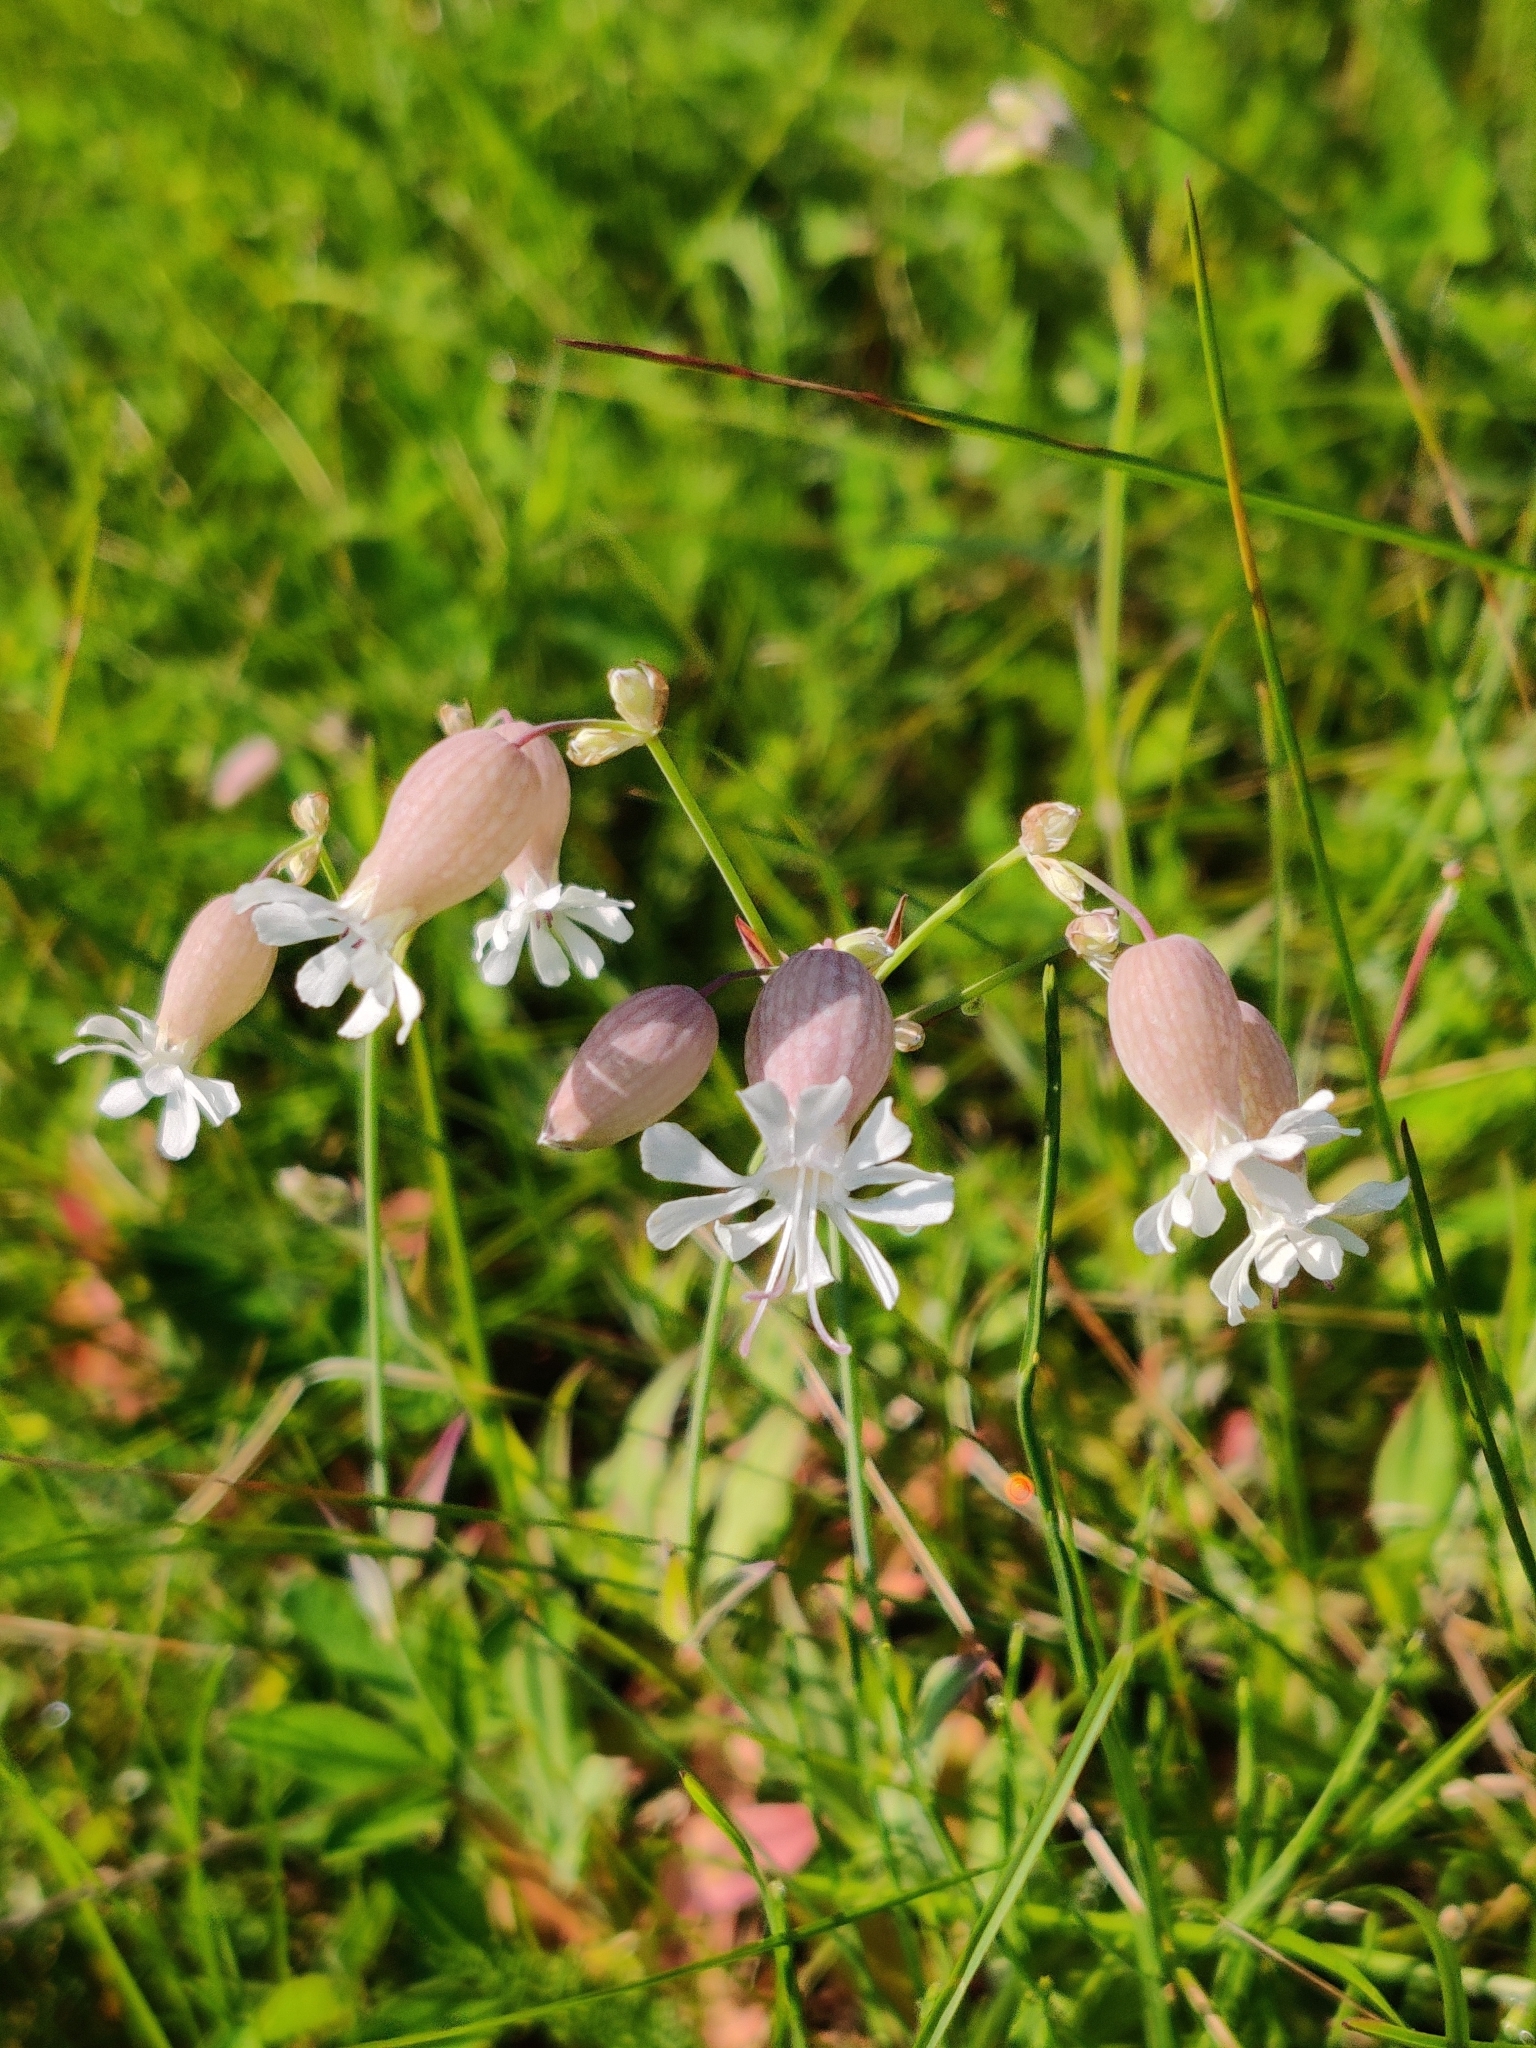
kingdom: Plantae
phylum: Tracheophyta
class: Magnoliopsida
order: Caryophyllales
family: Caryophyllaceae
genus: Silene
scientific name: Silene vulgaris
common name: Bladder campion
